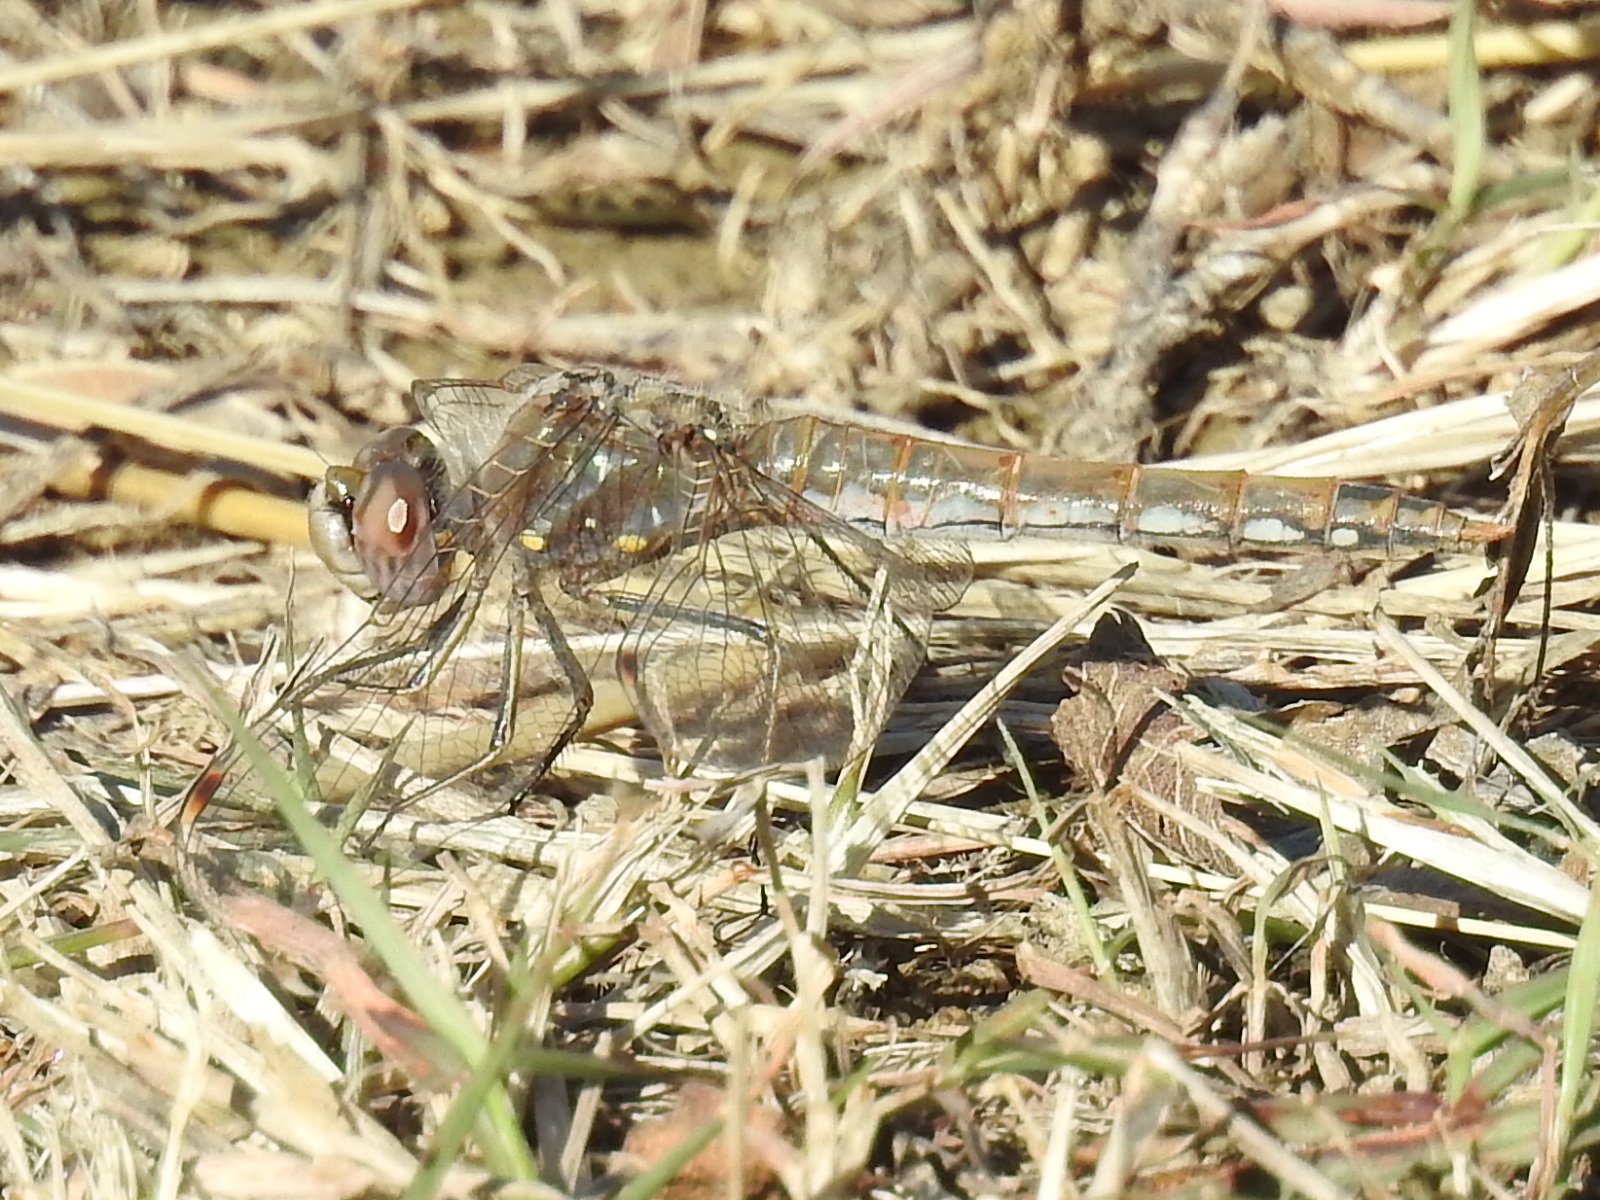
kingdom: Animalia
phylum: Arthropoda
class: Insecta
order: Odonata
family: Libellulidae
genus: Sympetrum
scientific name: Sympetrum corruptum
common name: Variegated meadowhawk
